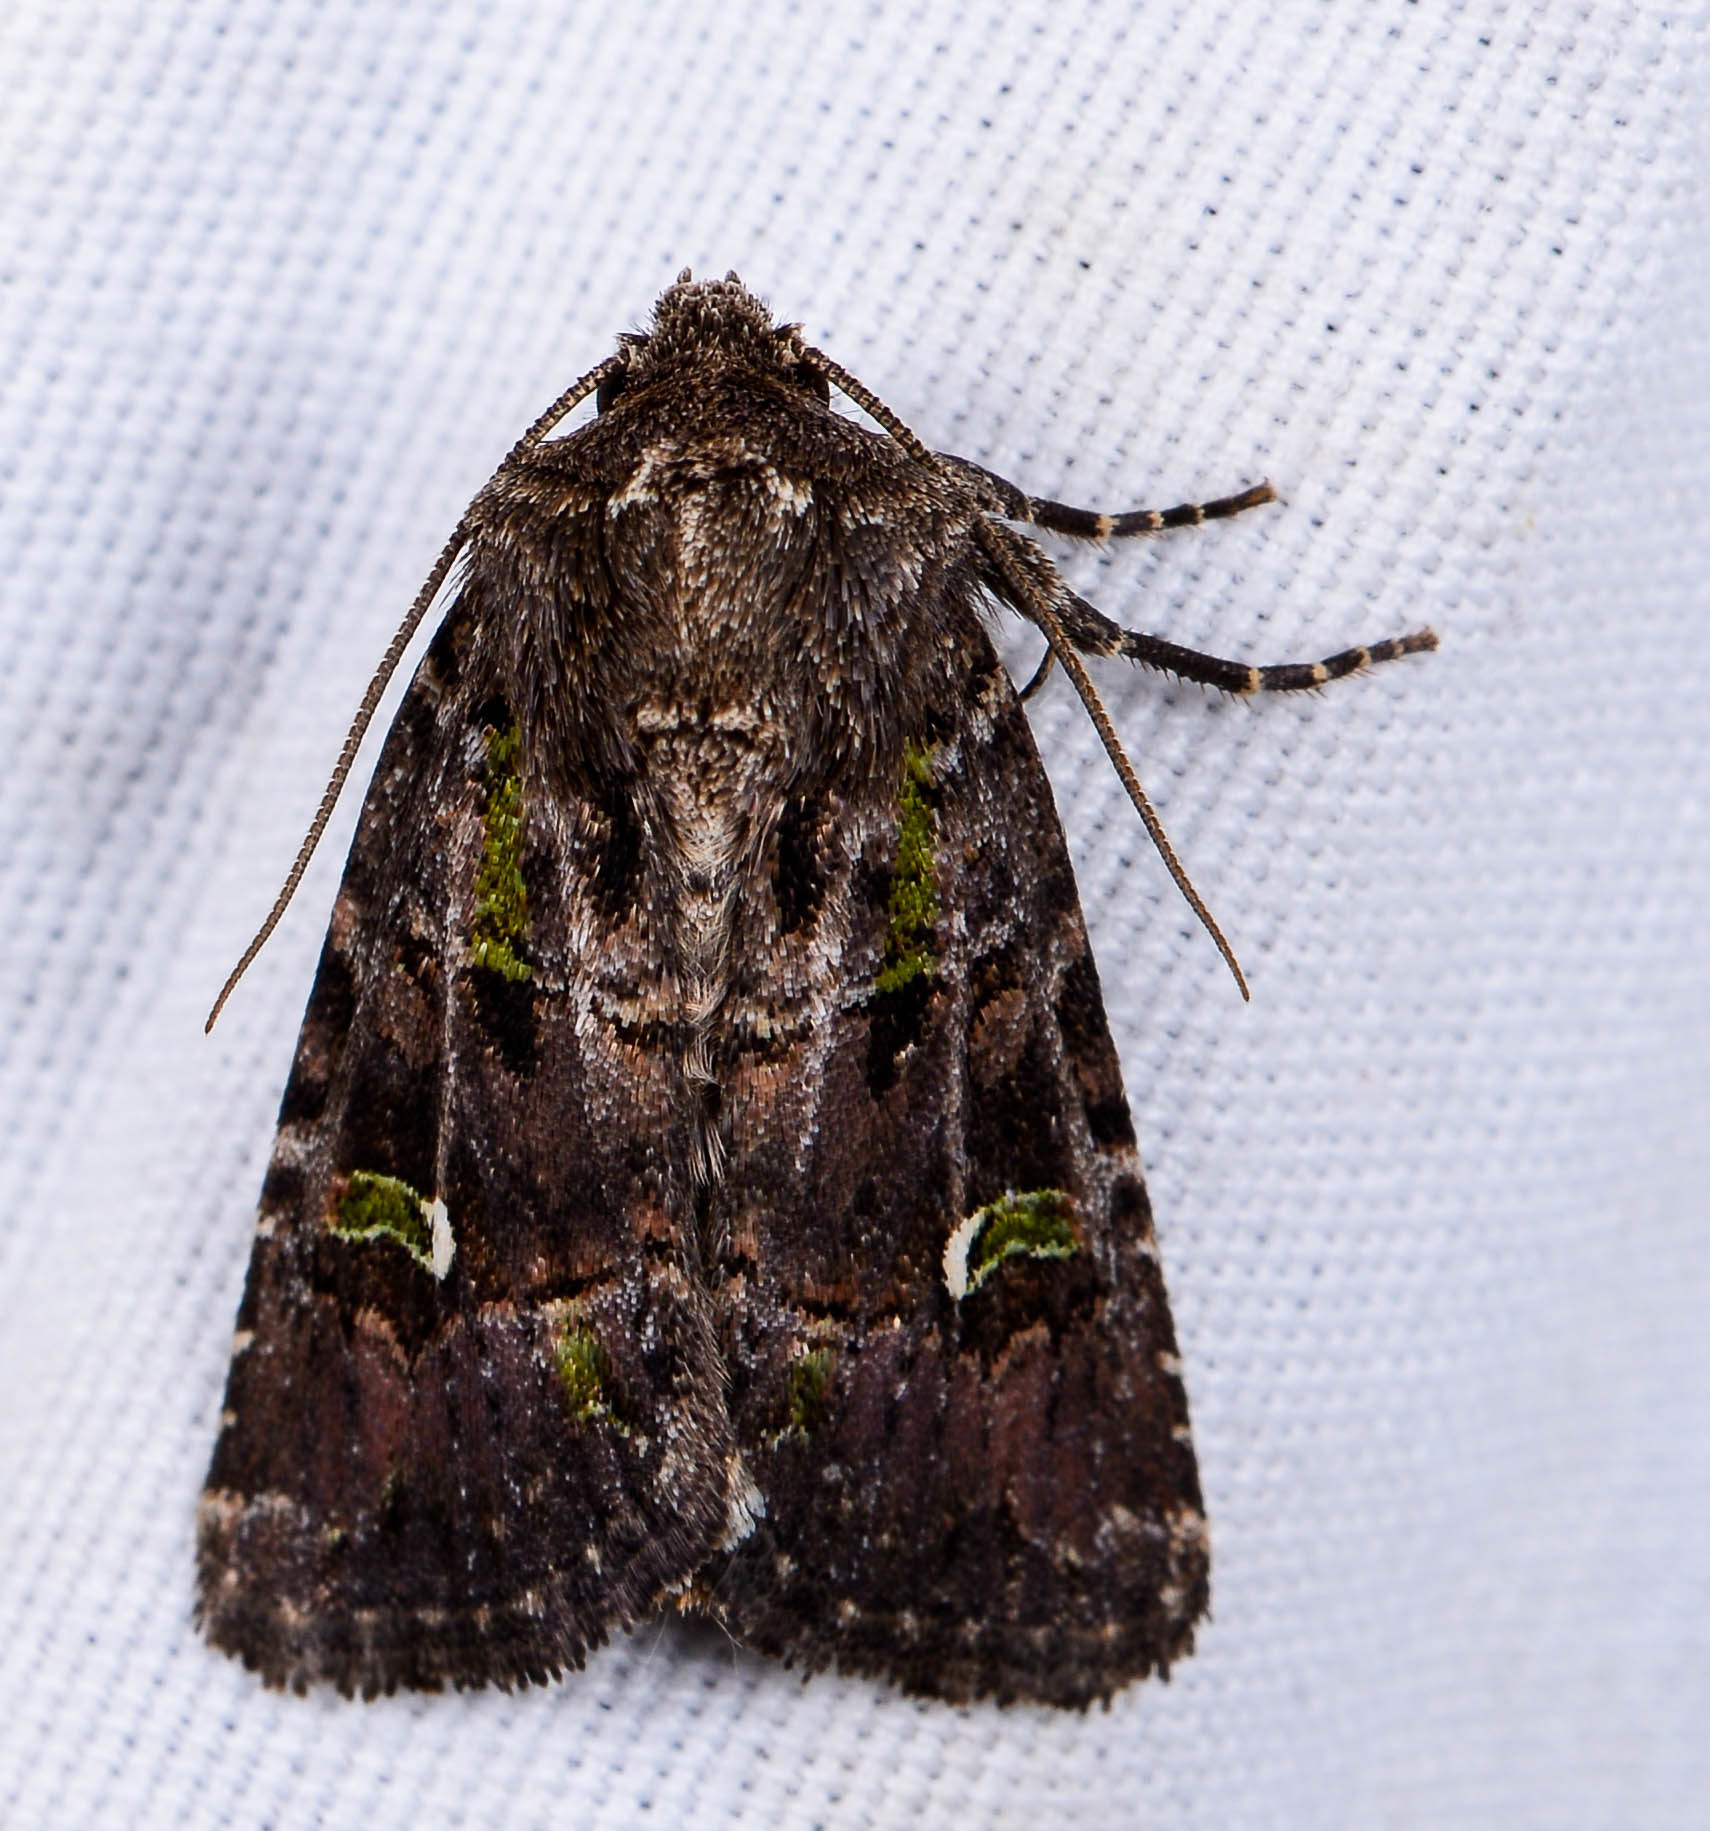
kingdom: Animalia
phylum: Arthropoda
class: Insecta
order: Lepidoptera
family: Noctuidae
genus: Lacinipolia
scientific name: Lacinipolia renigera
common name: Kidney-spotted minor
